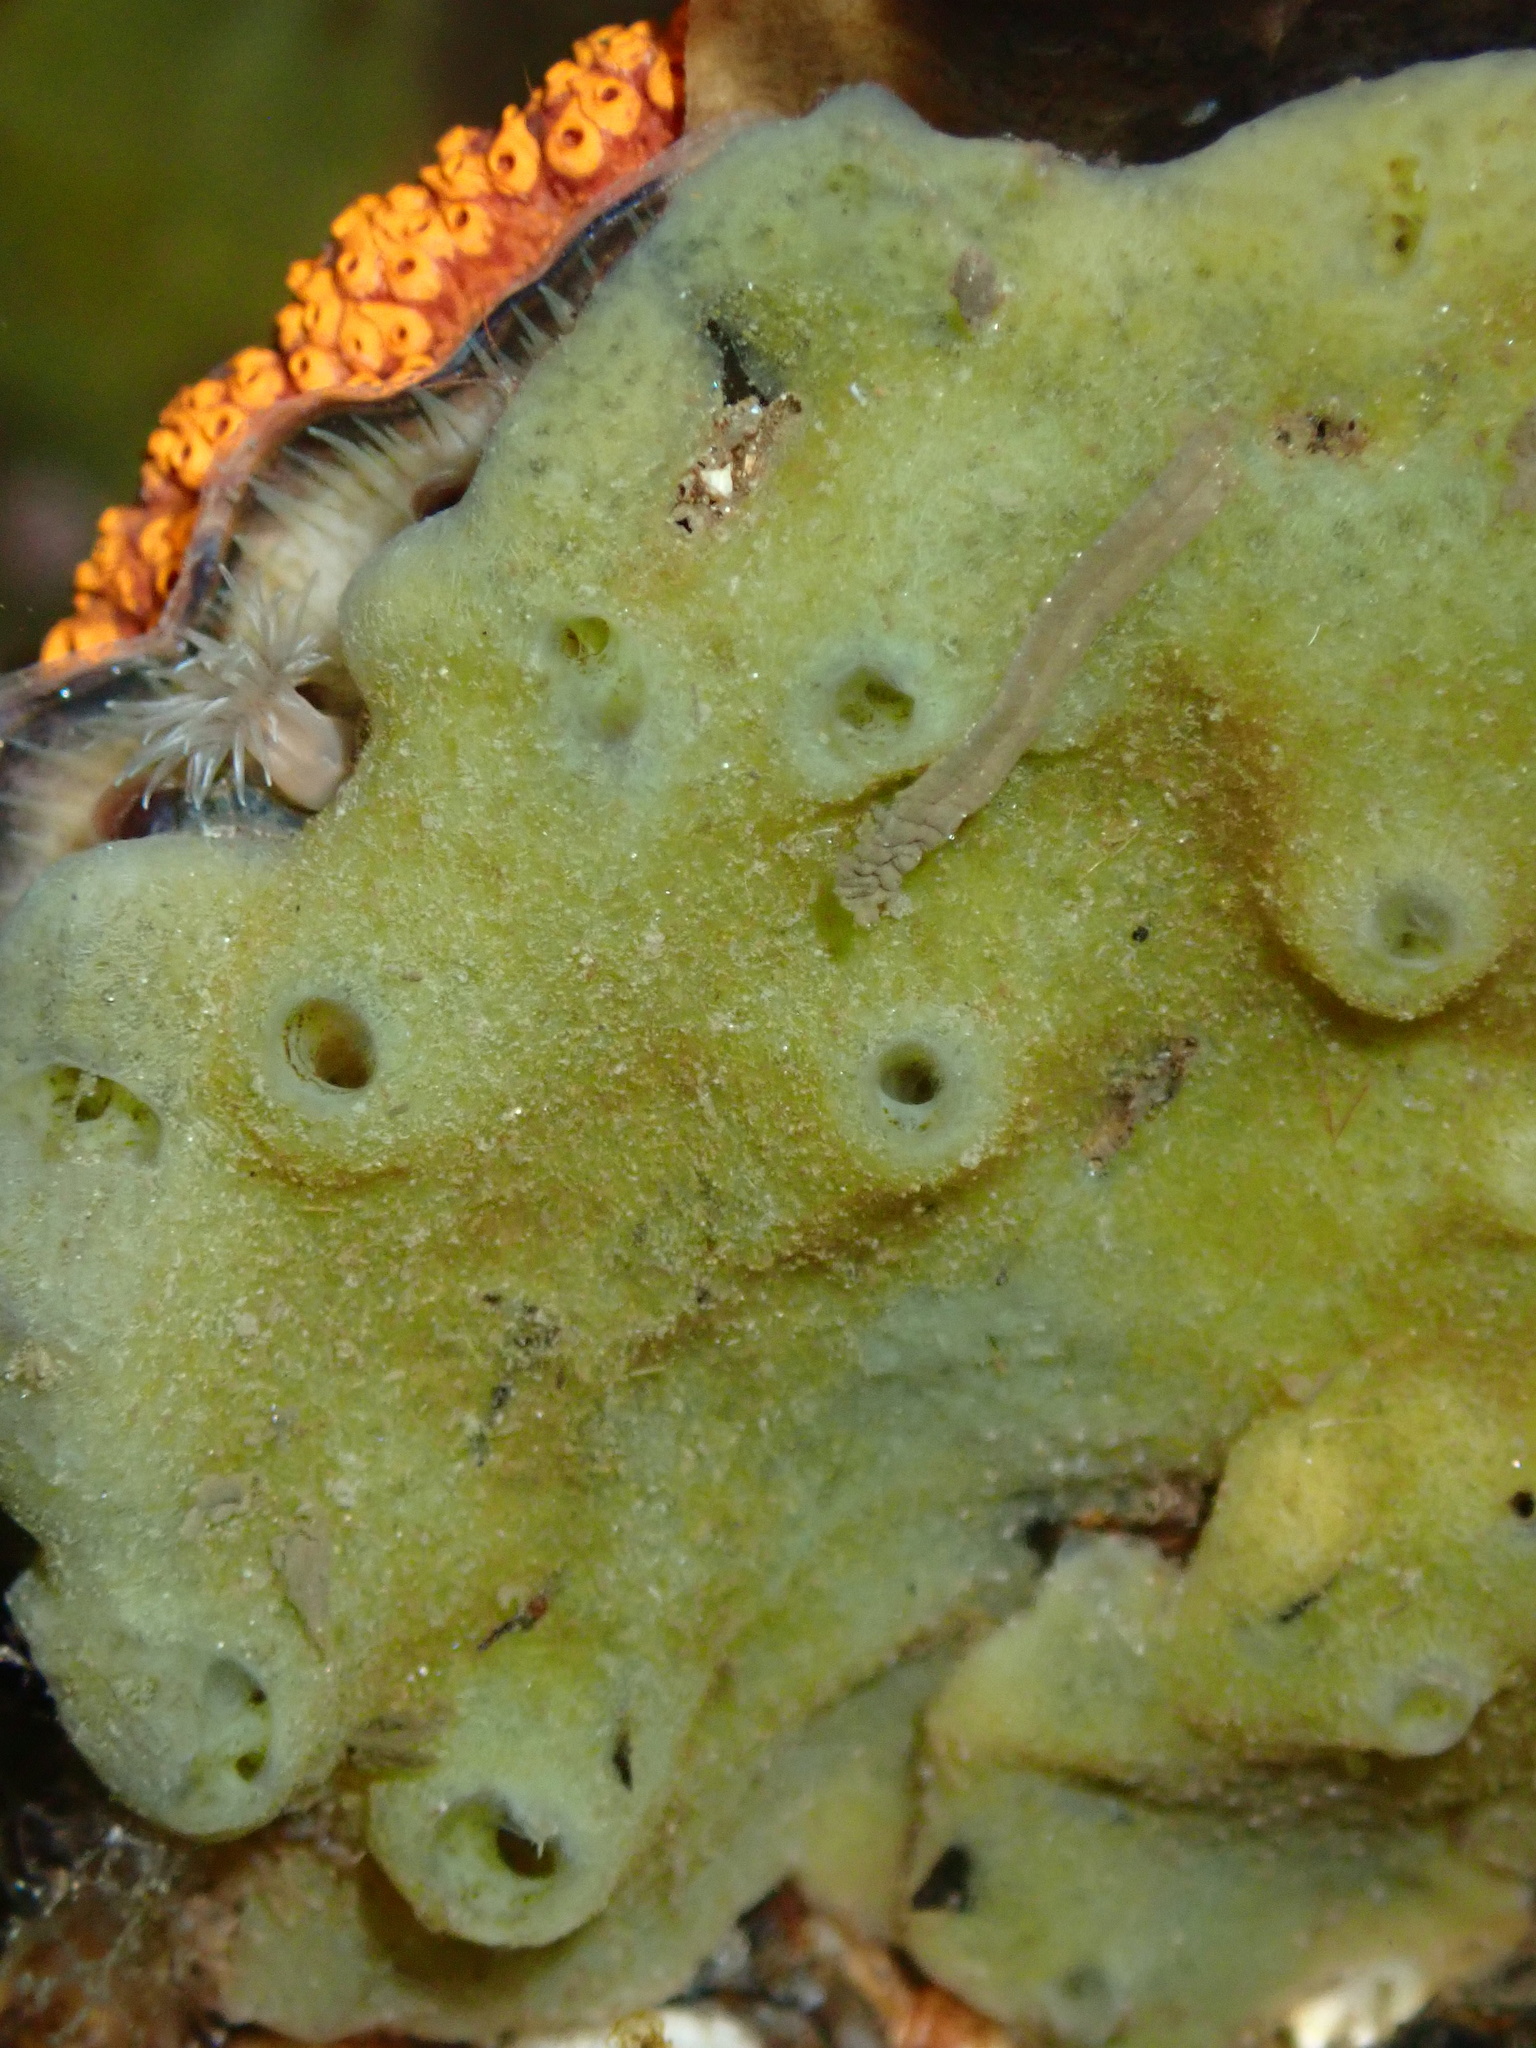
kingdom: Animalia
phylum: Porifera
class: Demospongiae
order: Suberitida
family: Halichondriidae
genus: Halichondria
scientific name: Halichondria panicea
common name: Breadcrumb sponge
